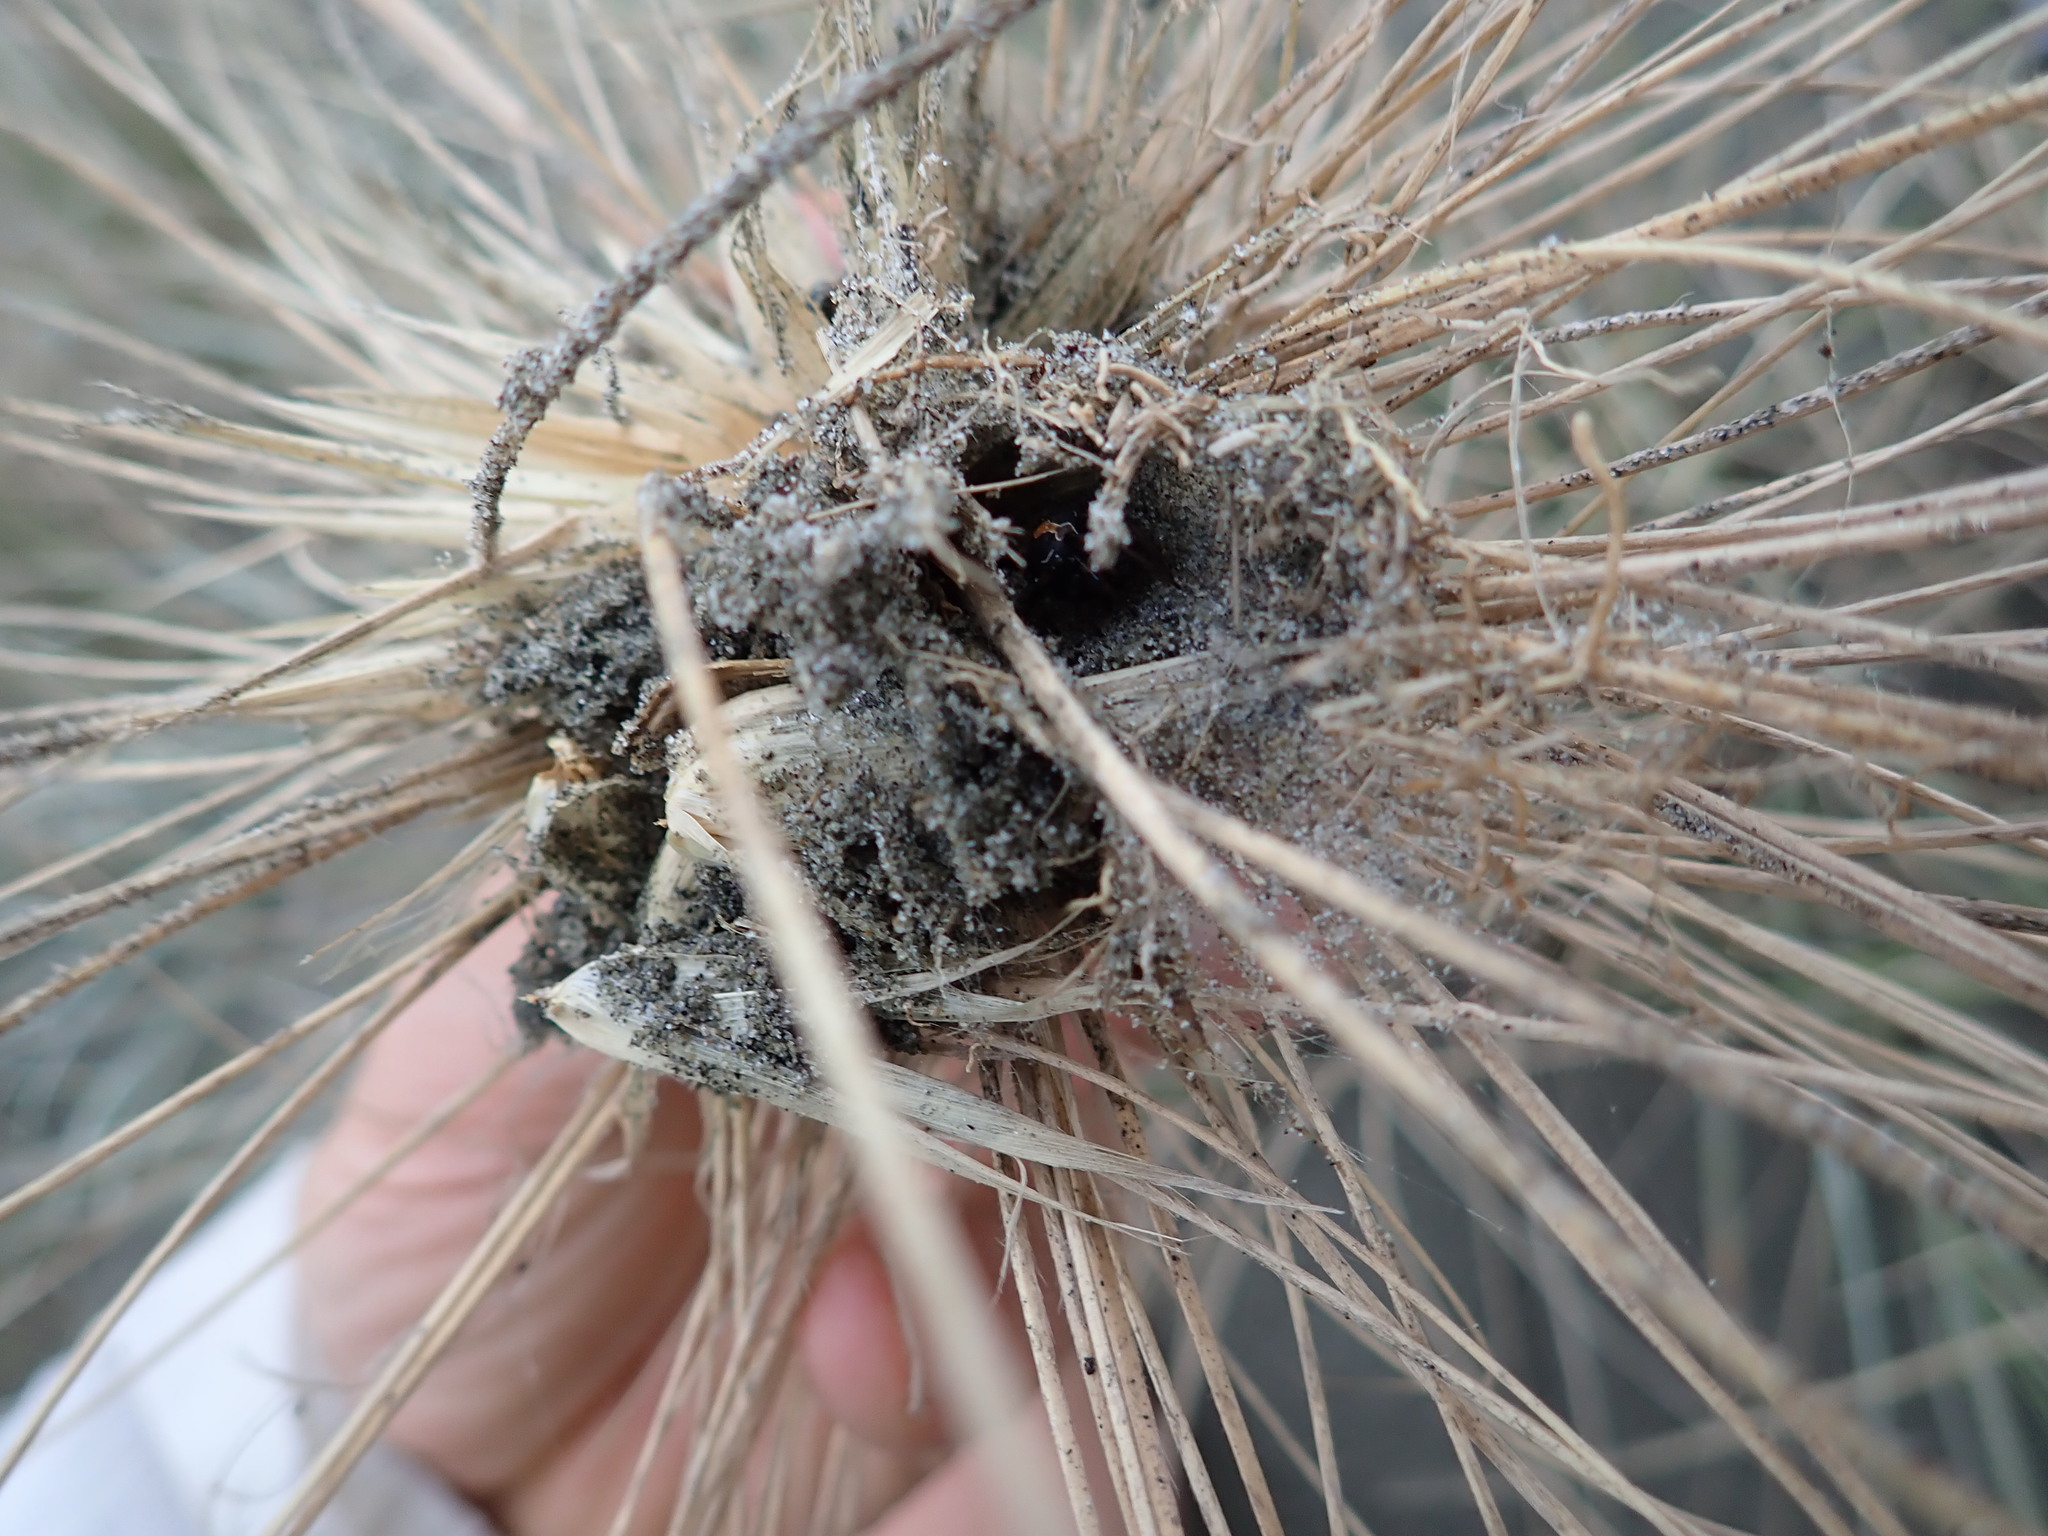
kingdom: Animalia
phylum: Arthropoda
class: Arachnida
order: Araneae
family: Theridiidae
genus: Steatoda
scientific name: Steatoda lepida
